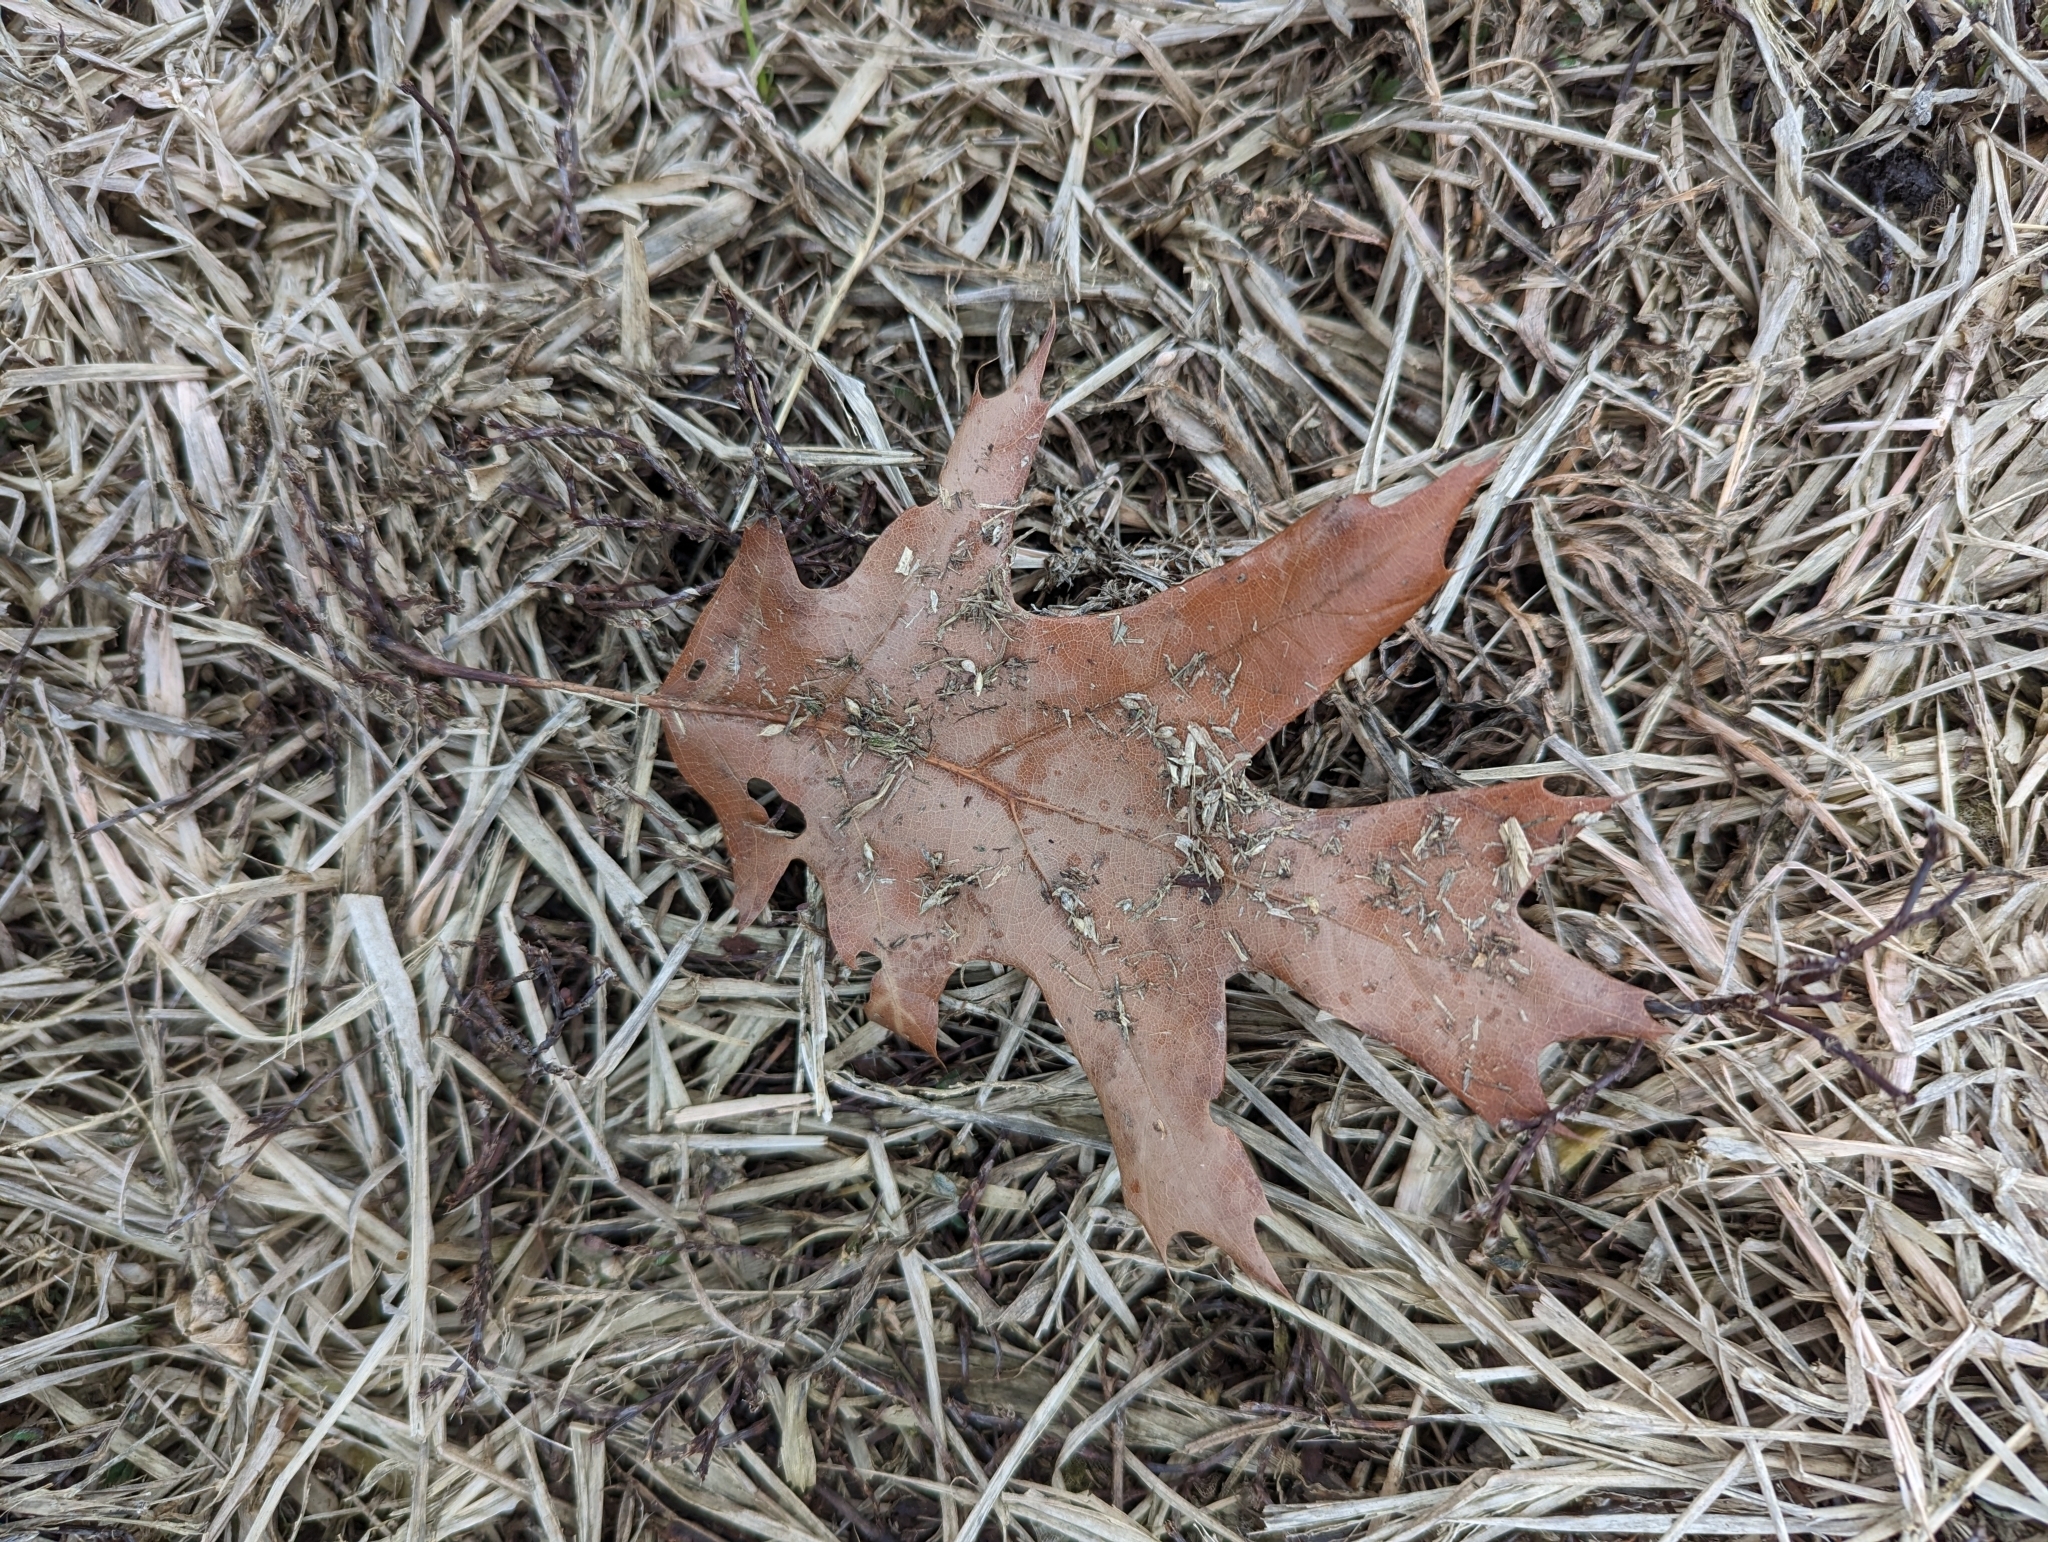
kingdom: Plantae
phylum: Tracheophyta
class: Magnoliopsida
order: Fagales
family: Fagaceae
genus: Quercus
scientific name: Quercus rubra
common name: Red oak
